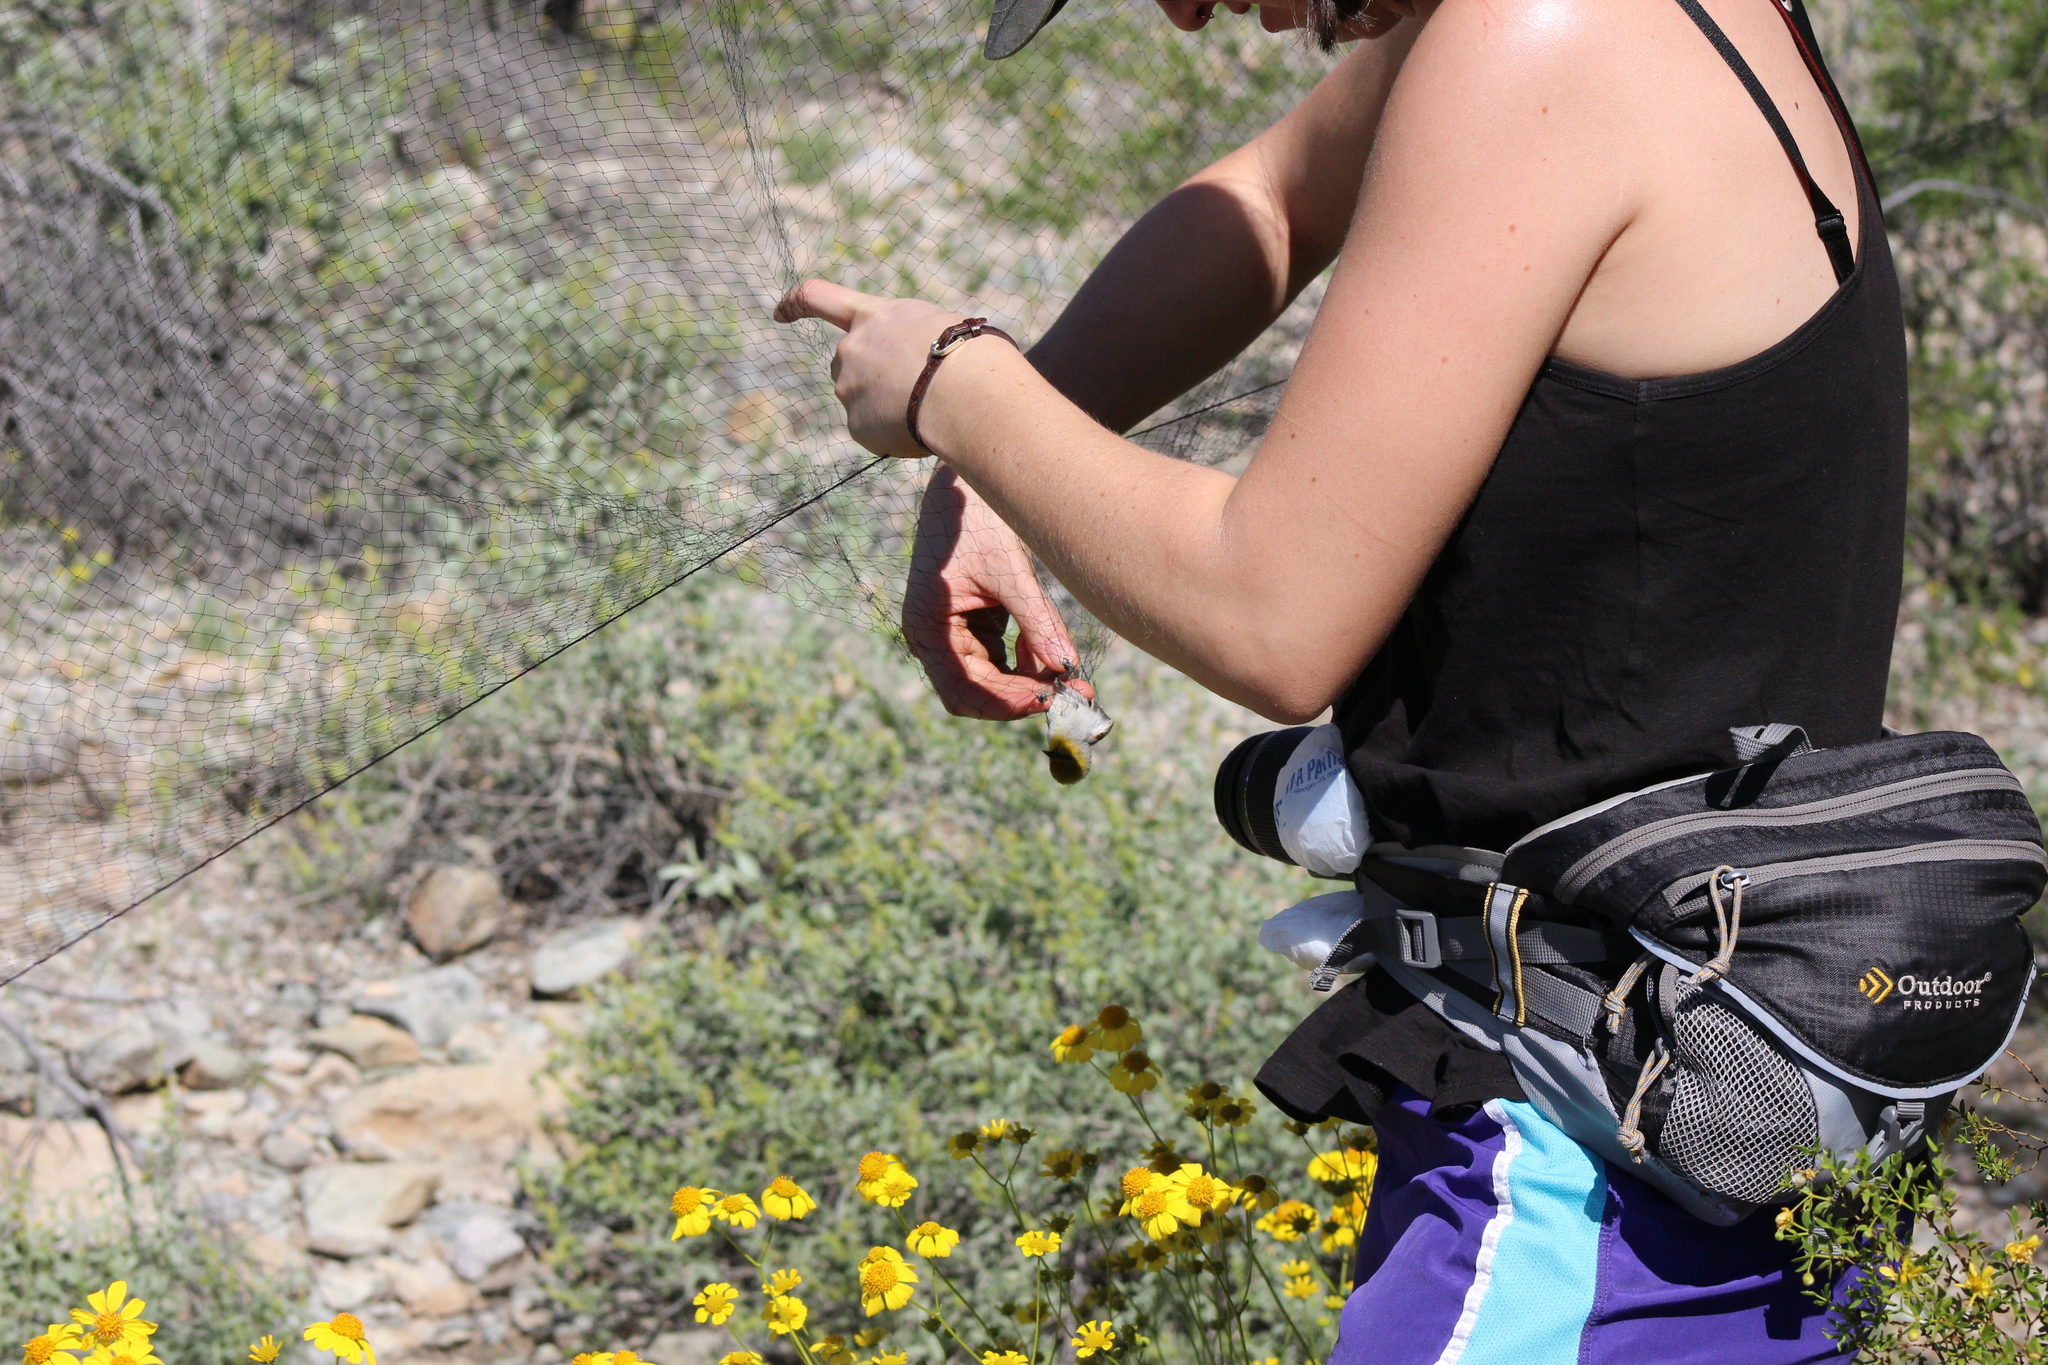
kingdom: Animalia
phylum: Chordata
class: Aves
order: Passeriformes
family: Remizidae
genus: Auriparus
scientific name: Auriparus flaviceps
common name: Verdin
